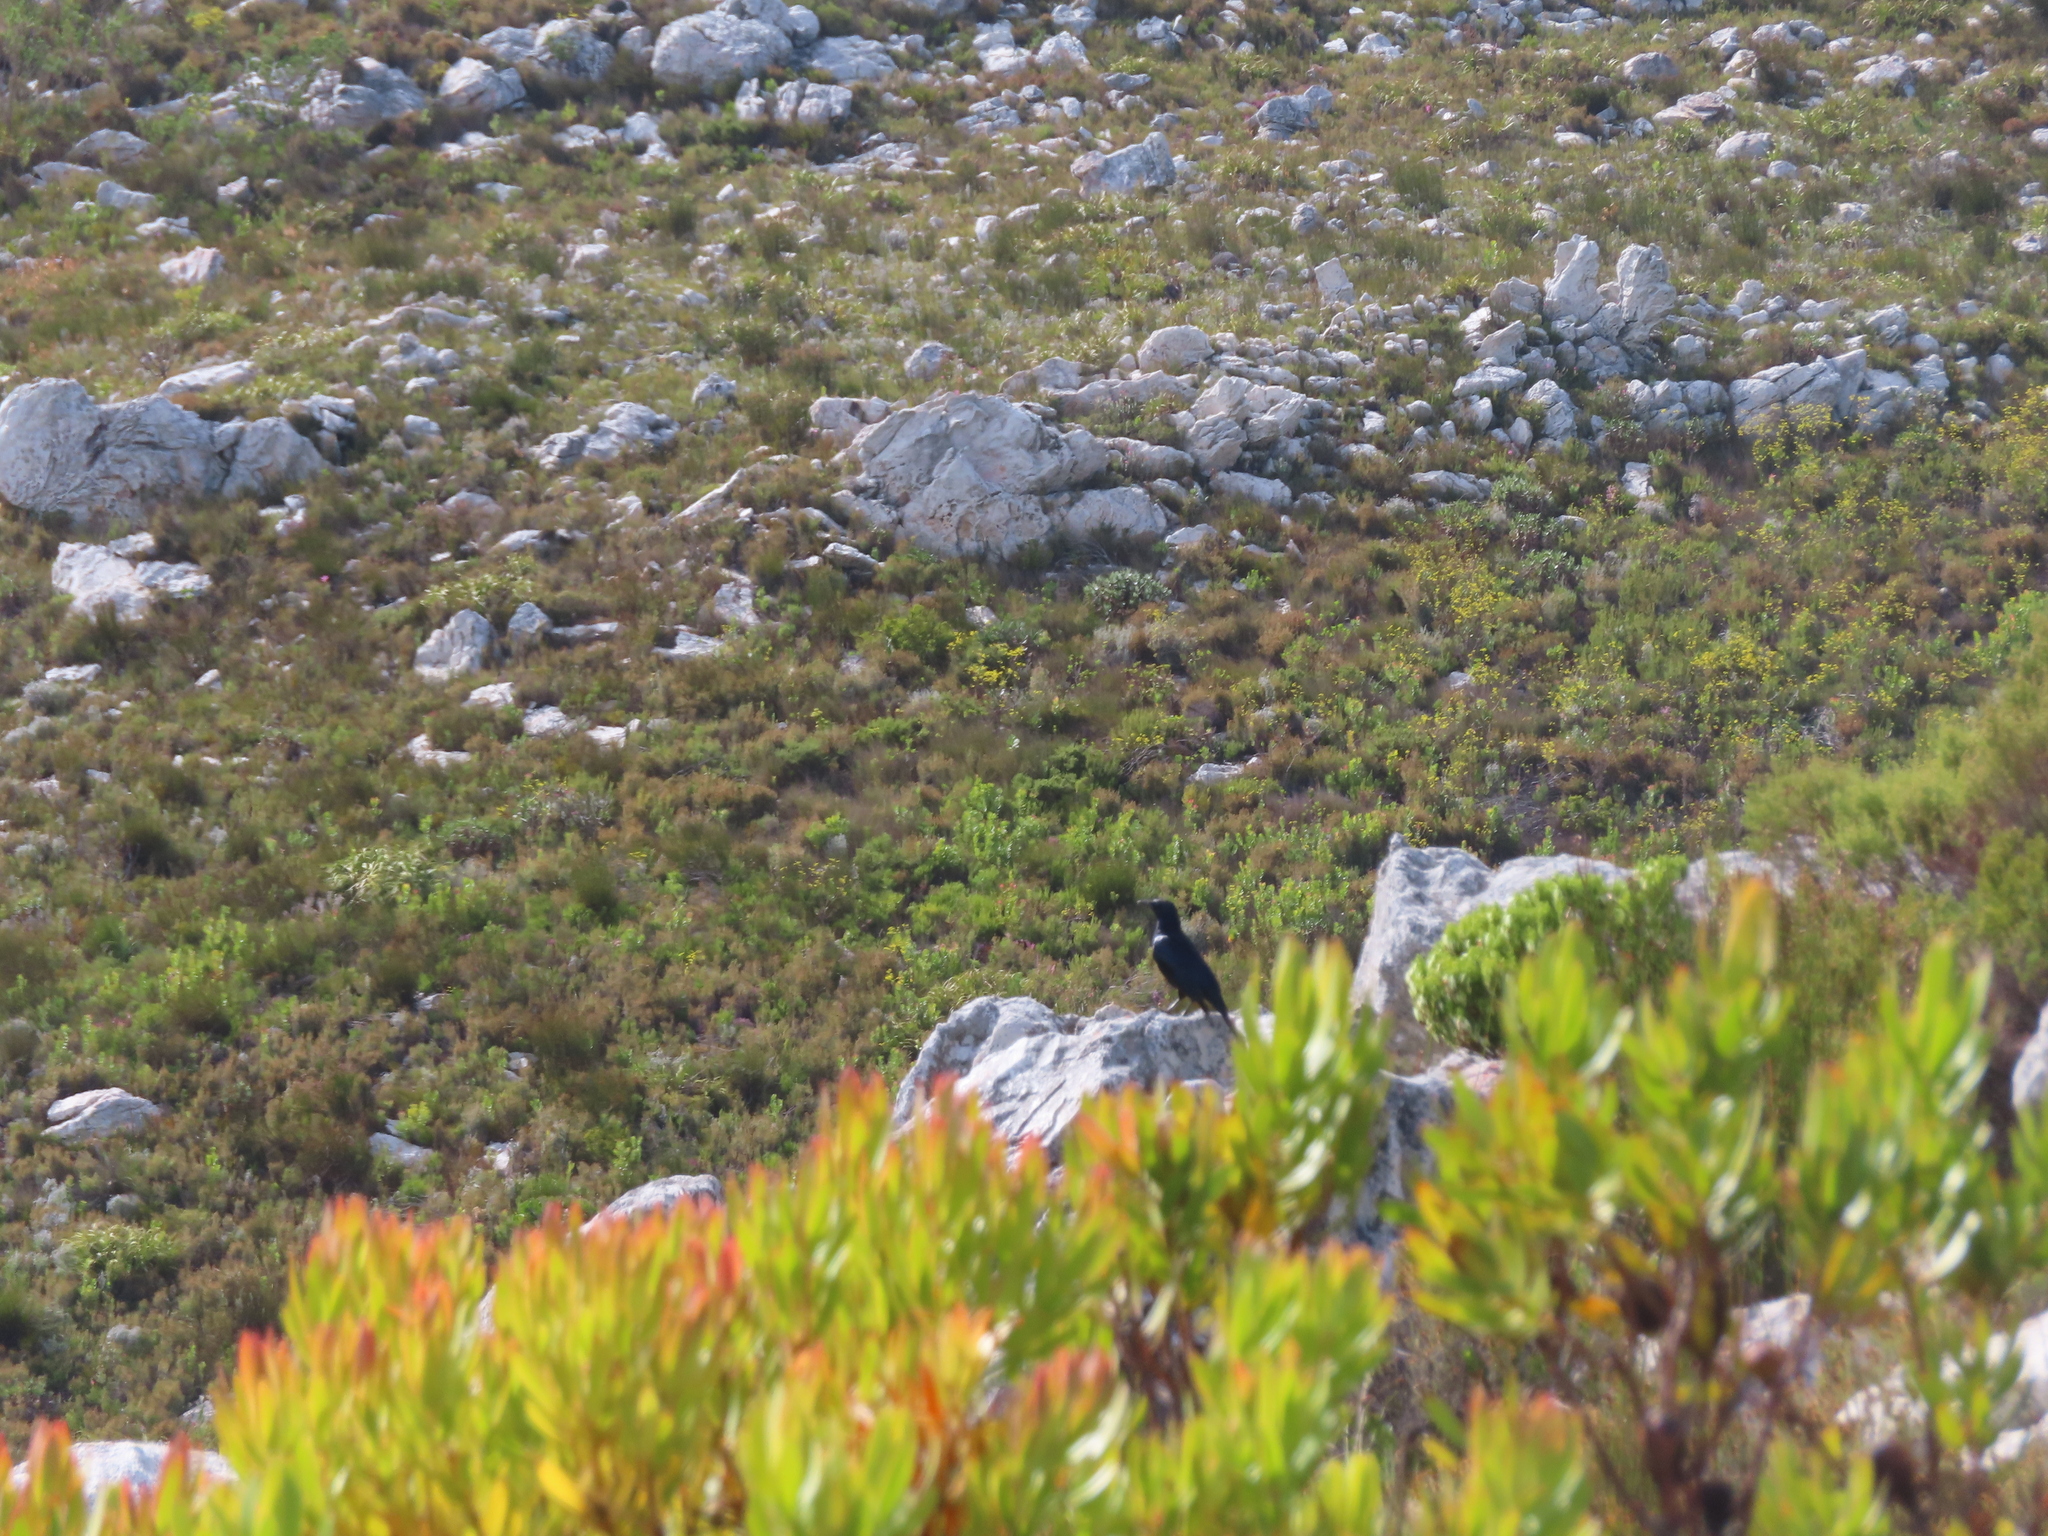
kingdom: Animalia
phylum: Chordata
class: Aves
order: Passeriformes
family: Sturnidae
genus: Onychognathus
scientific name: Onychognathus morio
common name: Red-winged starling
